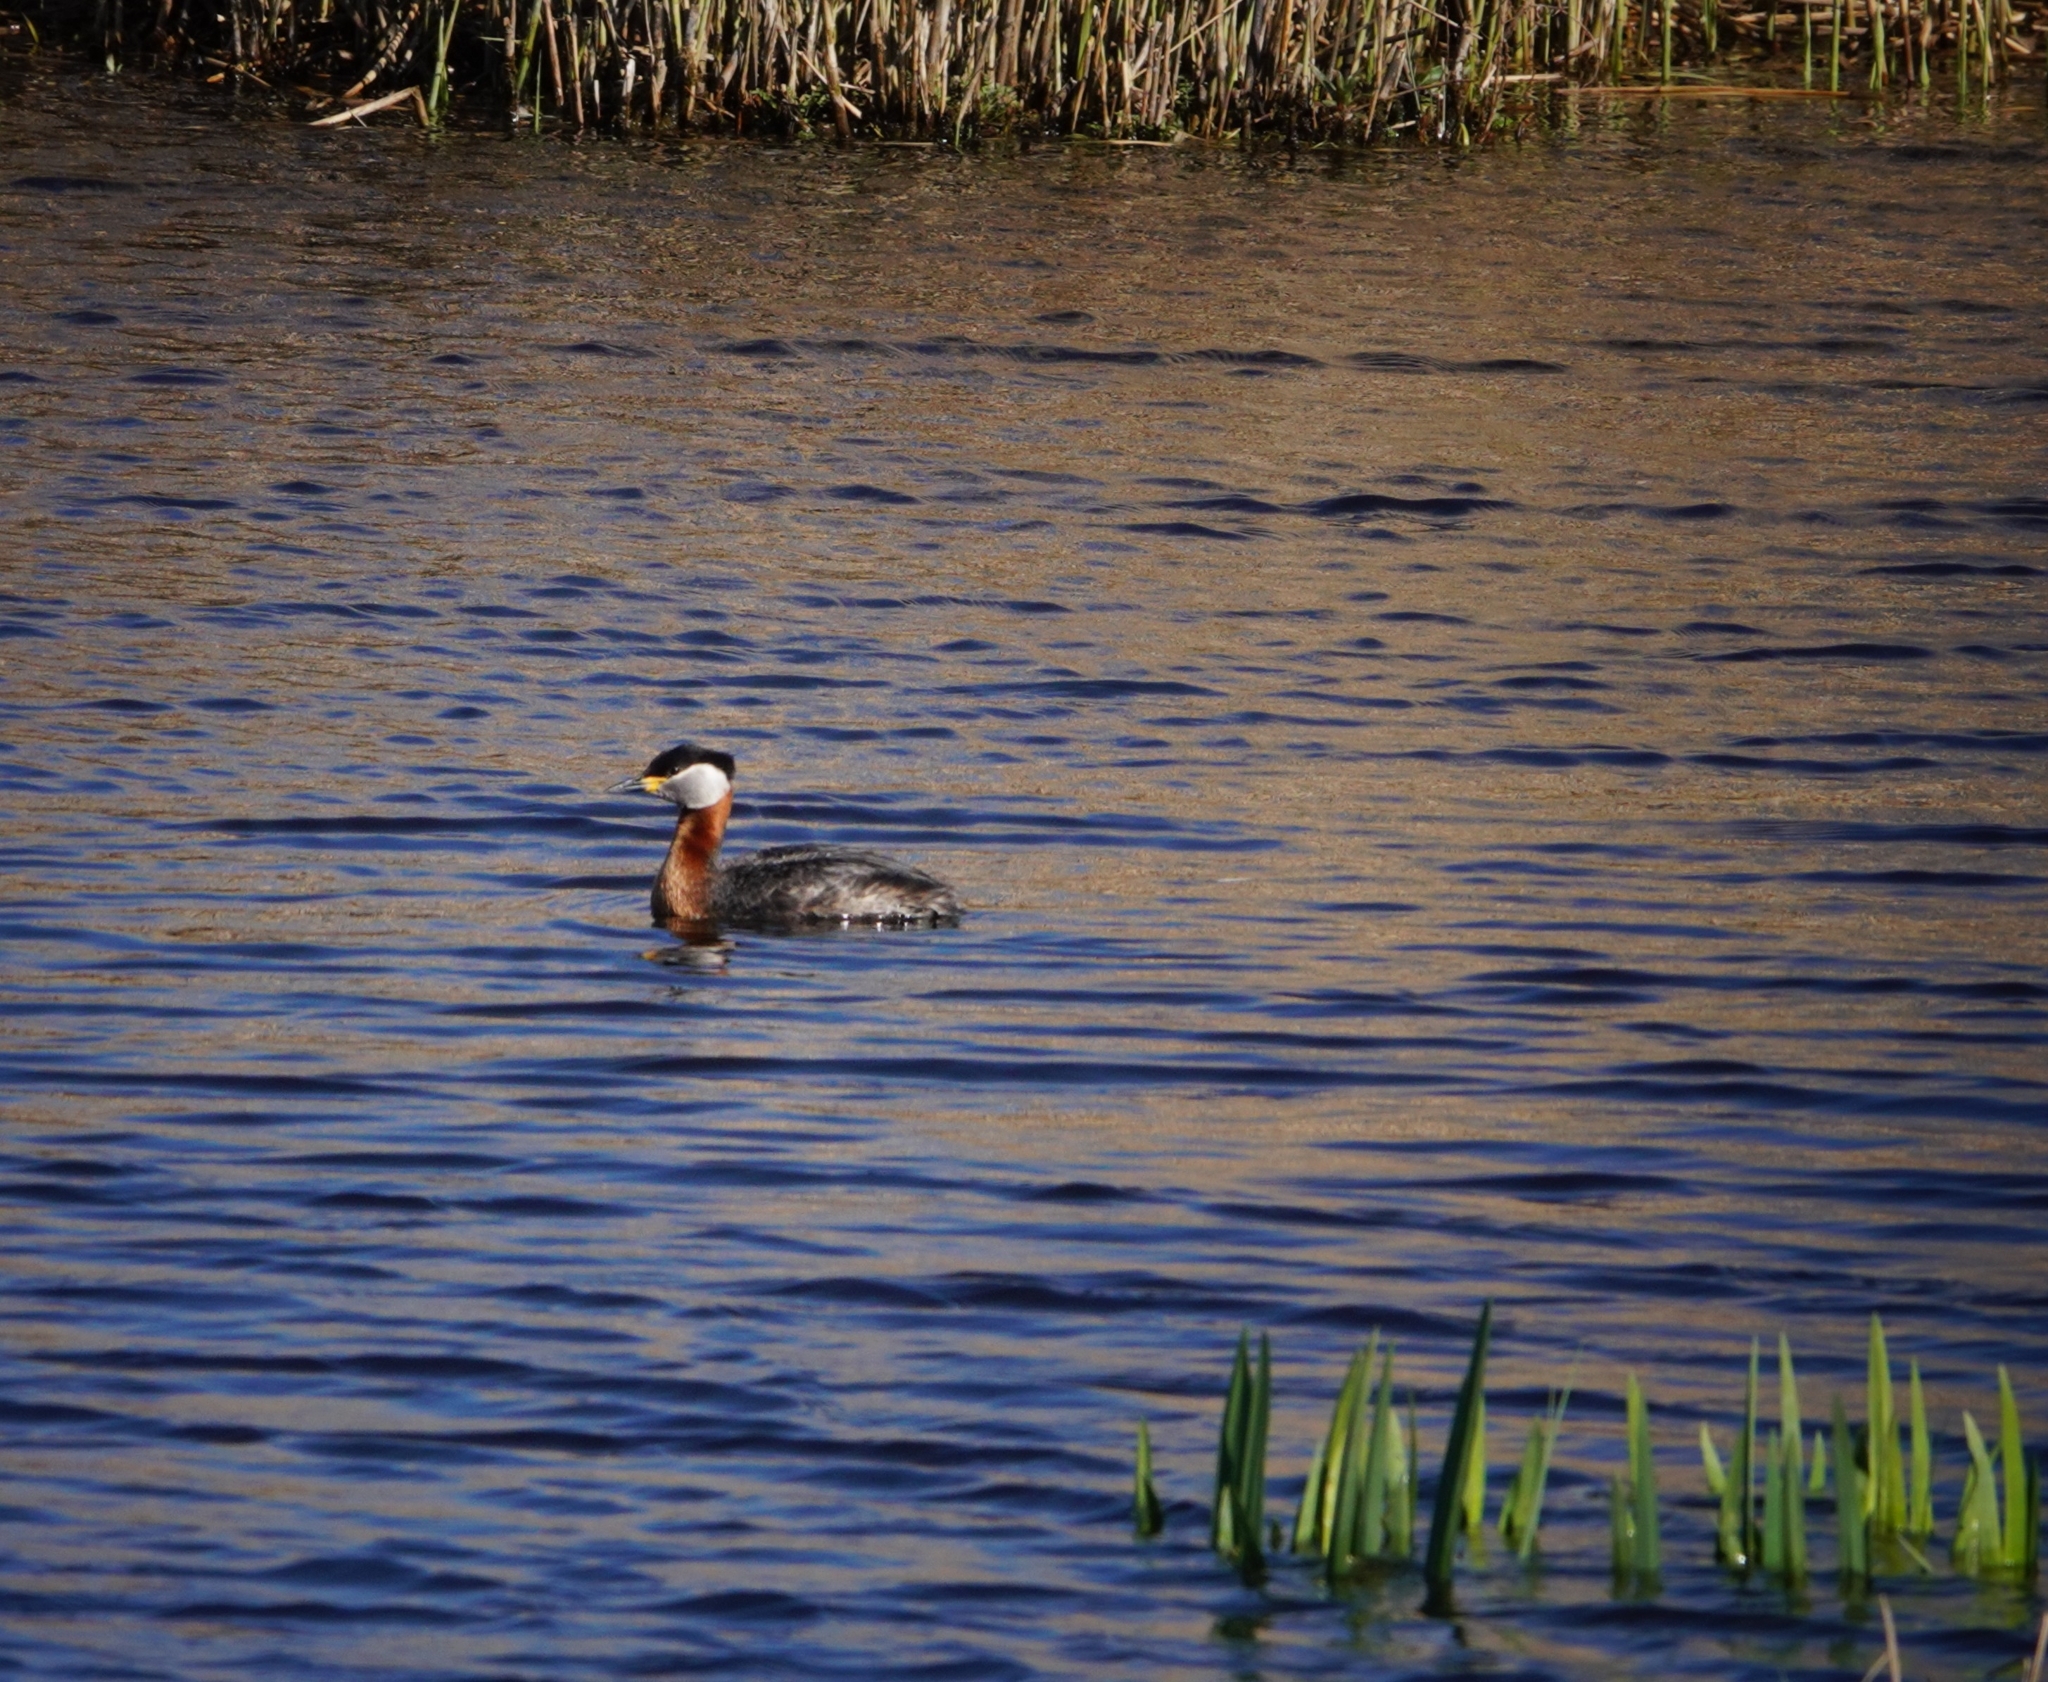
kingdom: Animalia
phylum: Chordata
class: Aves
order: Podicipediformes
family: Podicipedidae
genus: Podiceps
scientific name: Podiceps grisegena
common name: Red-necked grebe
